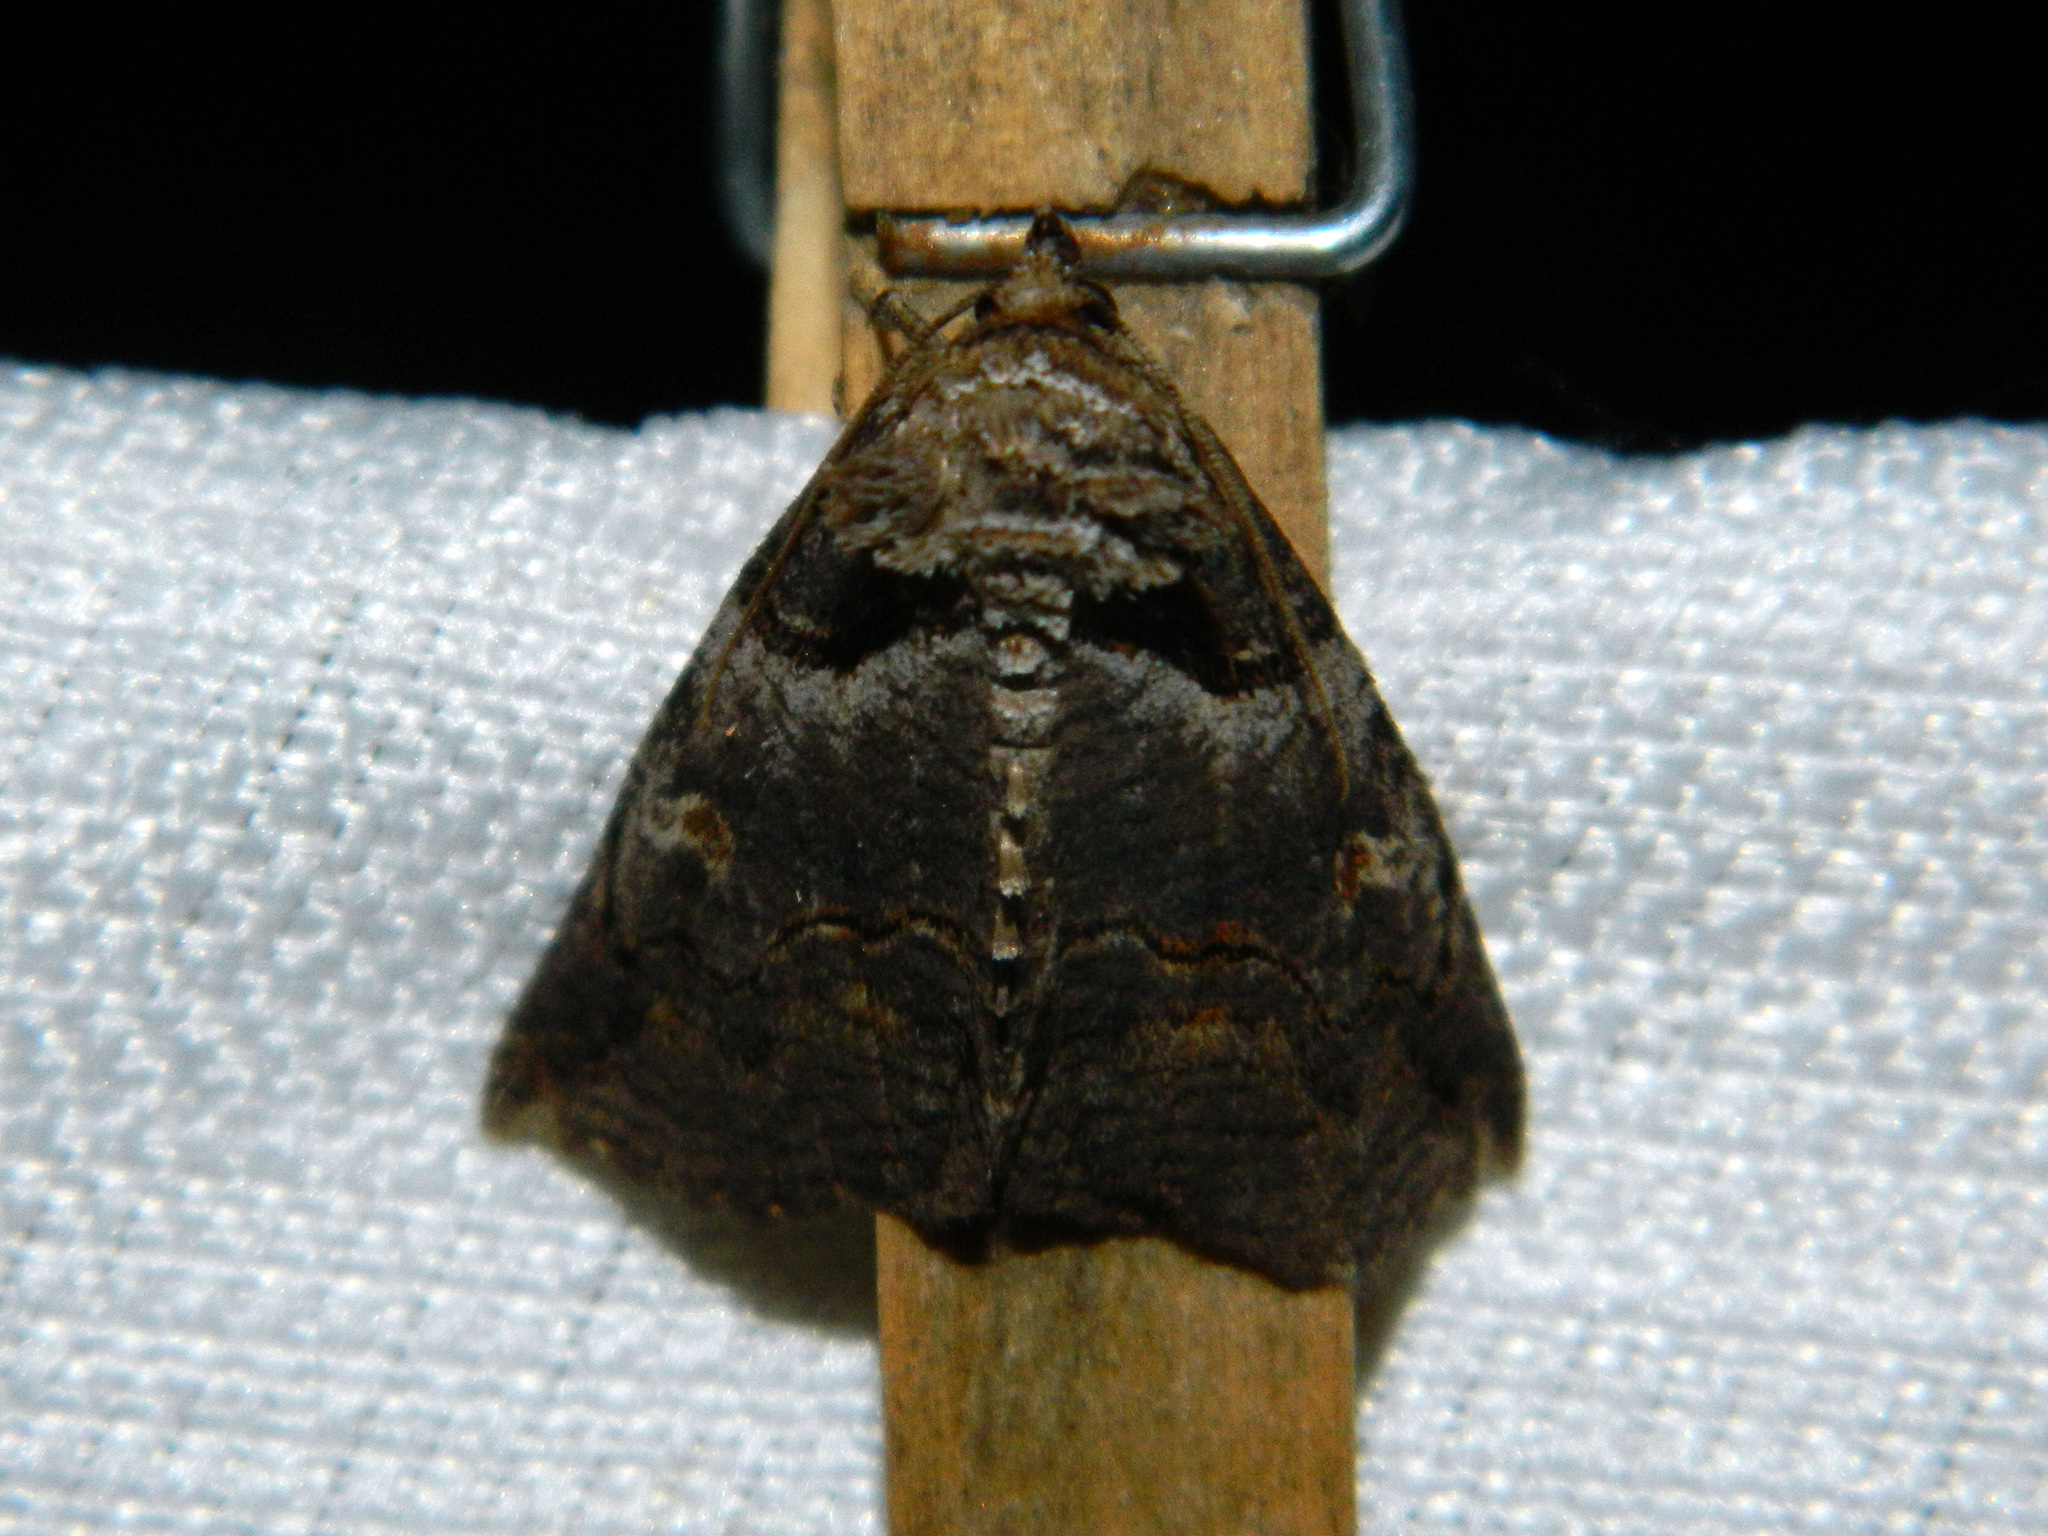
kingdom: Animalia
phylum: Arthropoda
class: Insecta
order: Lepidoptera
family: Erebidae
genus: Zale
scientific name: Zale intenta
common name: Intent zale moth
